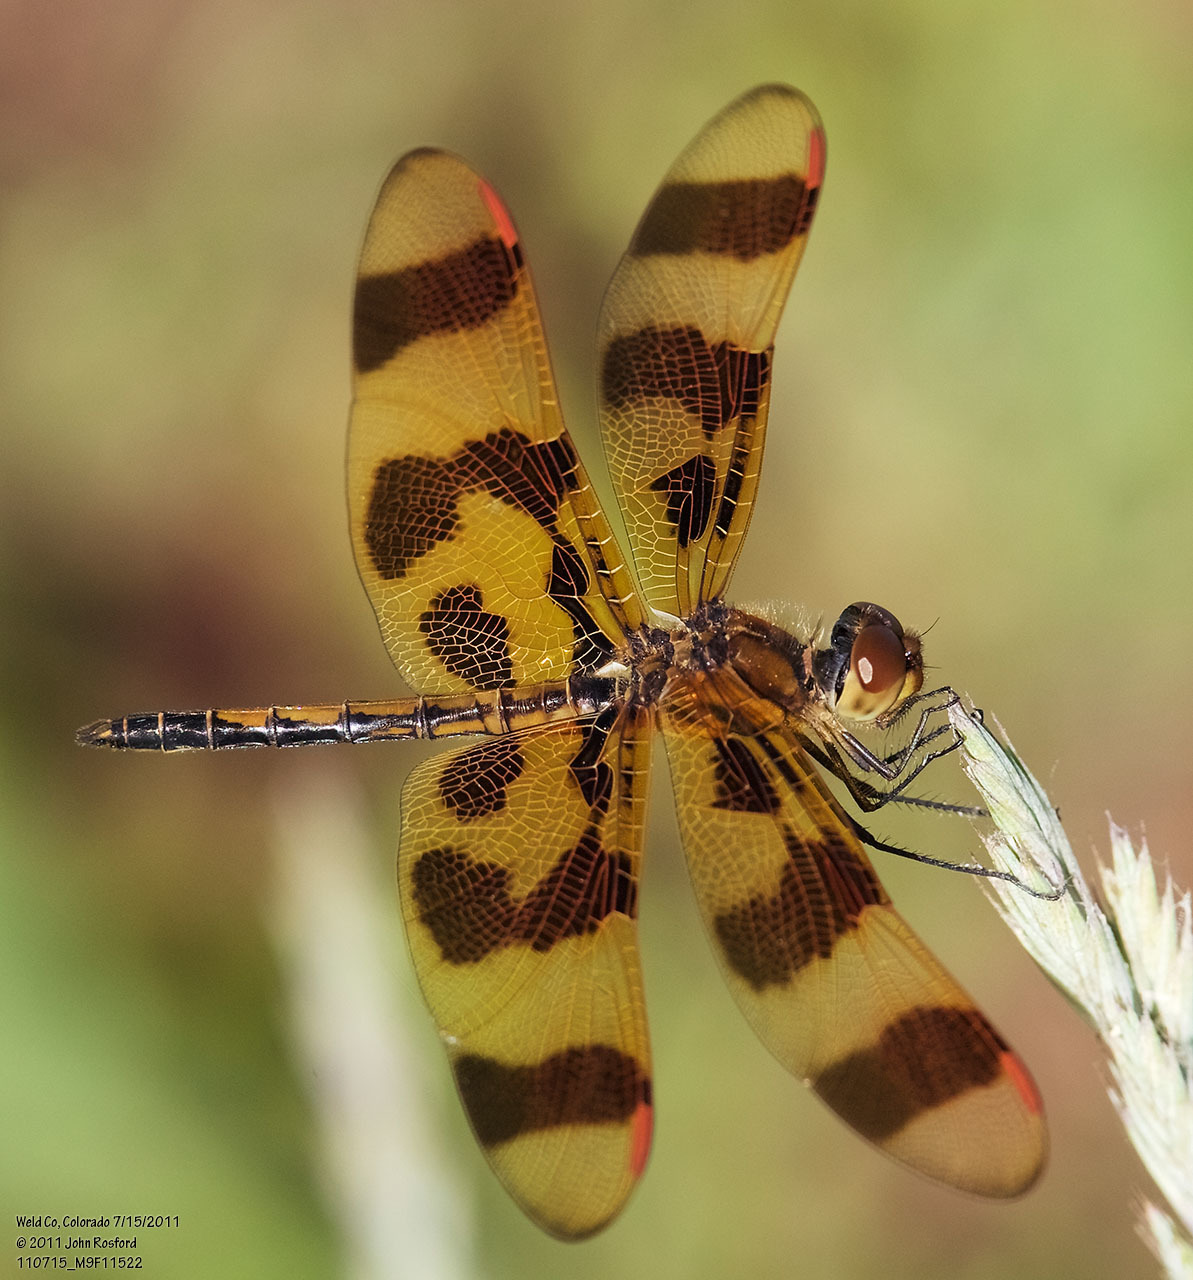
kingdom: Animalia
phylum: Arthropoda
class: Insecta
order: Odonata
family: Libellulidae
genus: Celithemis
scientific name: Celithemis eponina
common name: Halloween pennant
